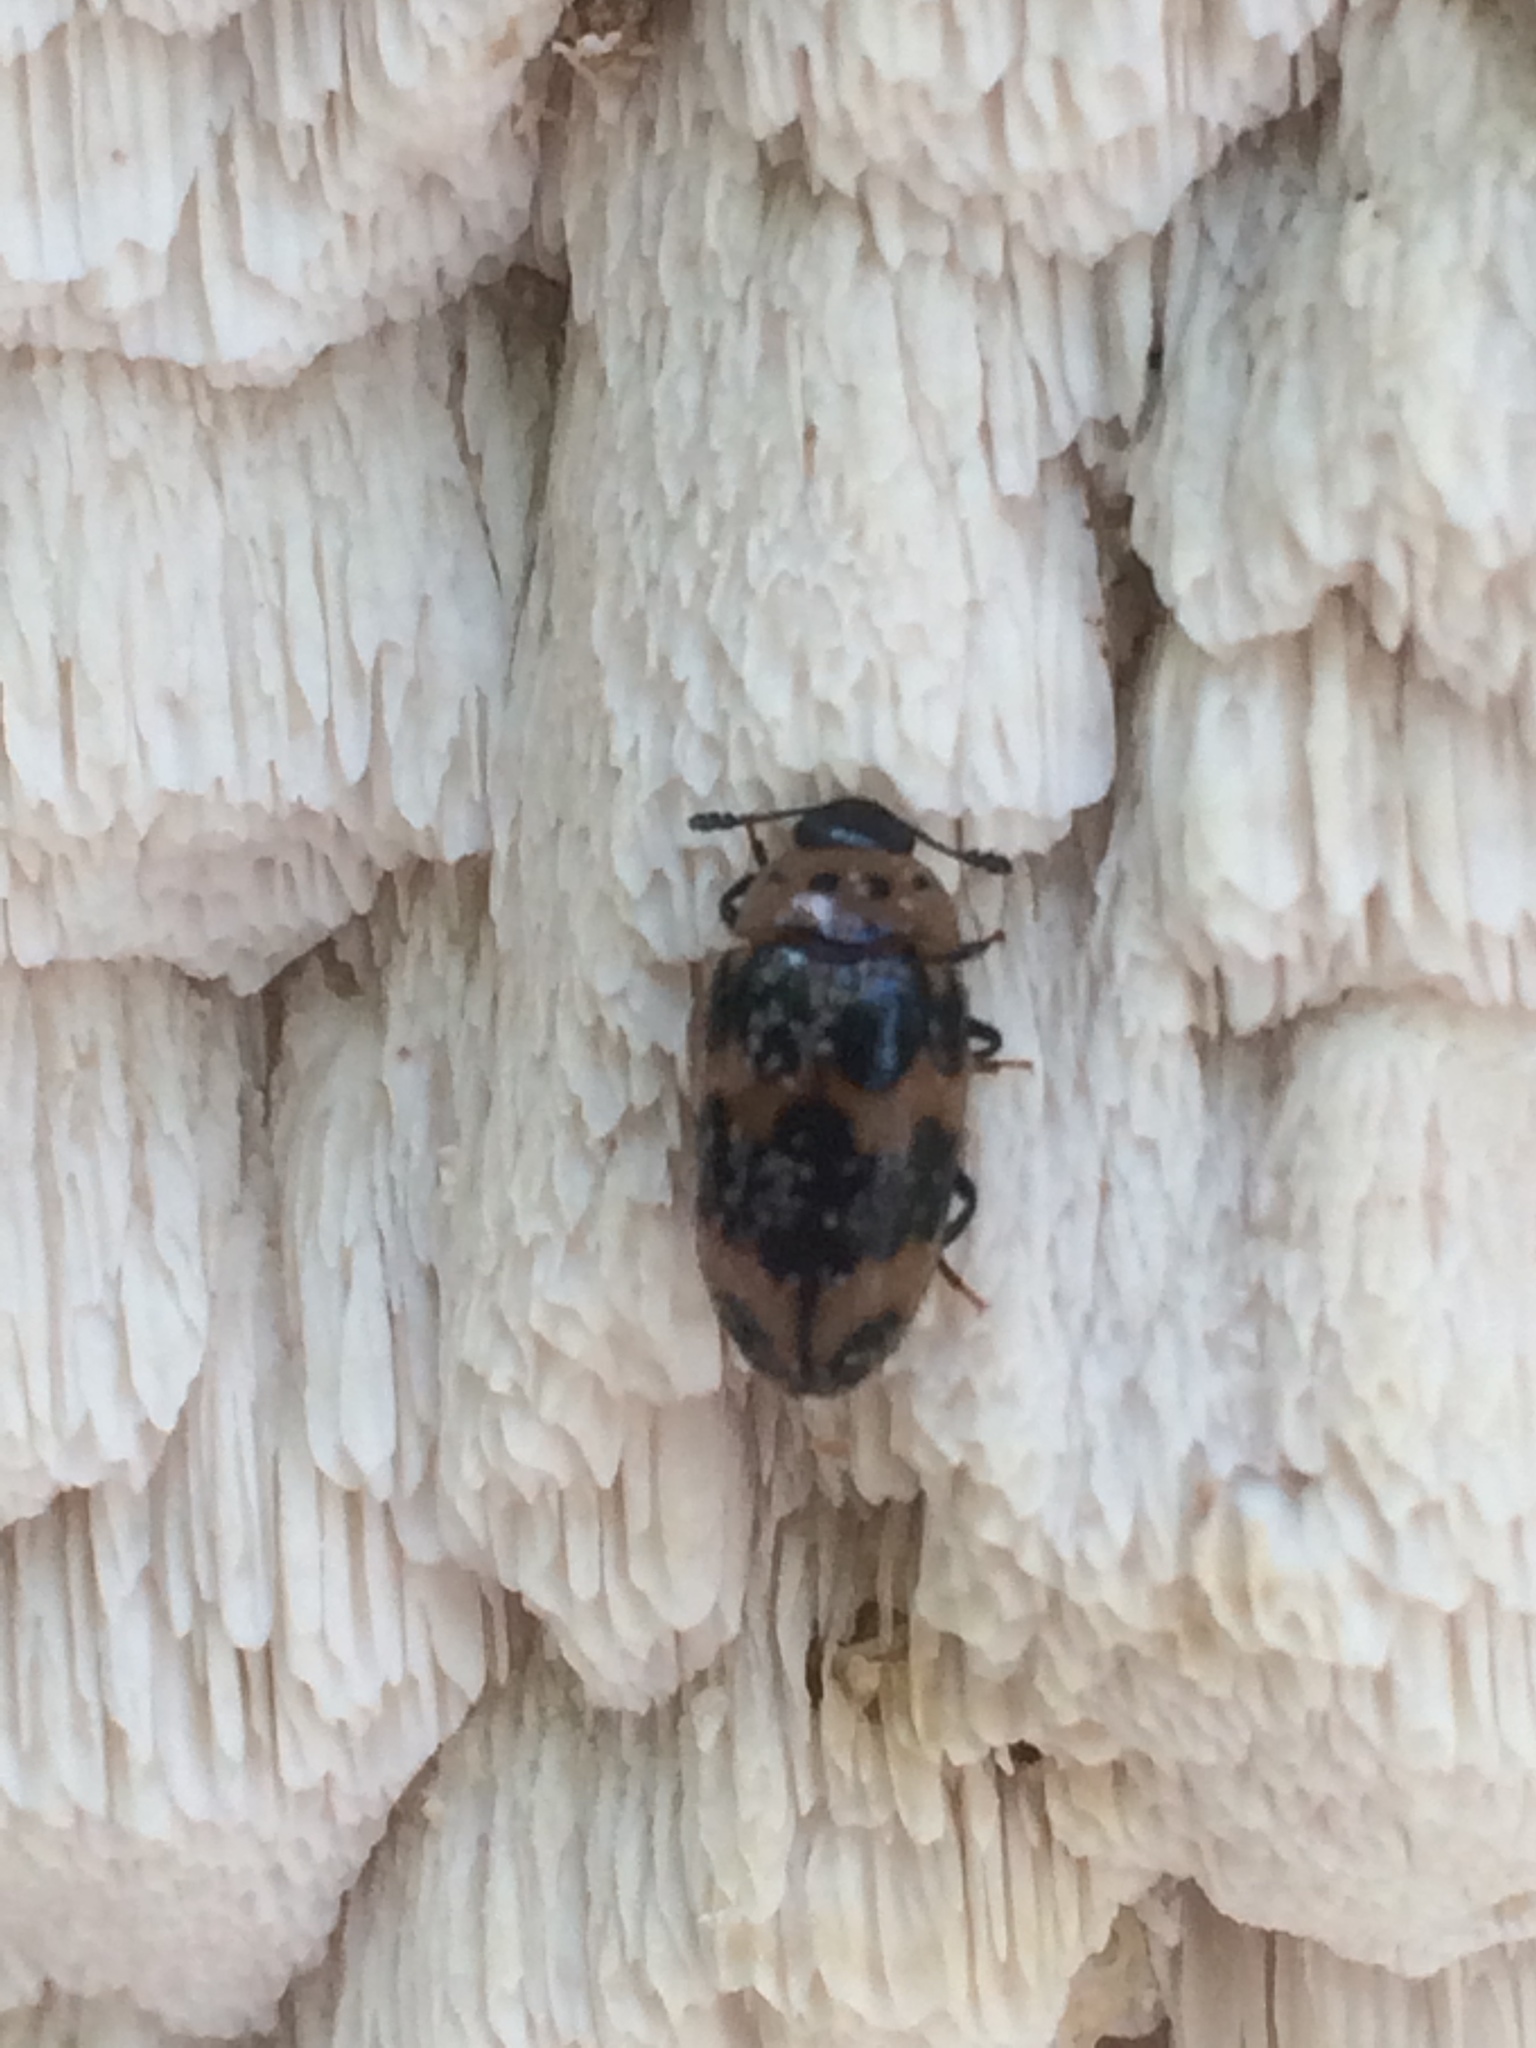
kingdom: Animalia
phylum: Arthropoda
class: Insecta
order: Coleoptera
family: Erotylidae
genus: Ischyrus
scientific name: Ischyrus quadripunctatus
